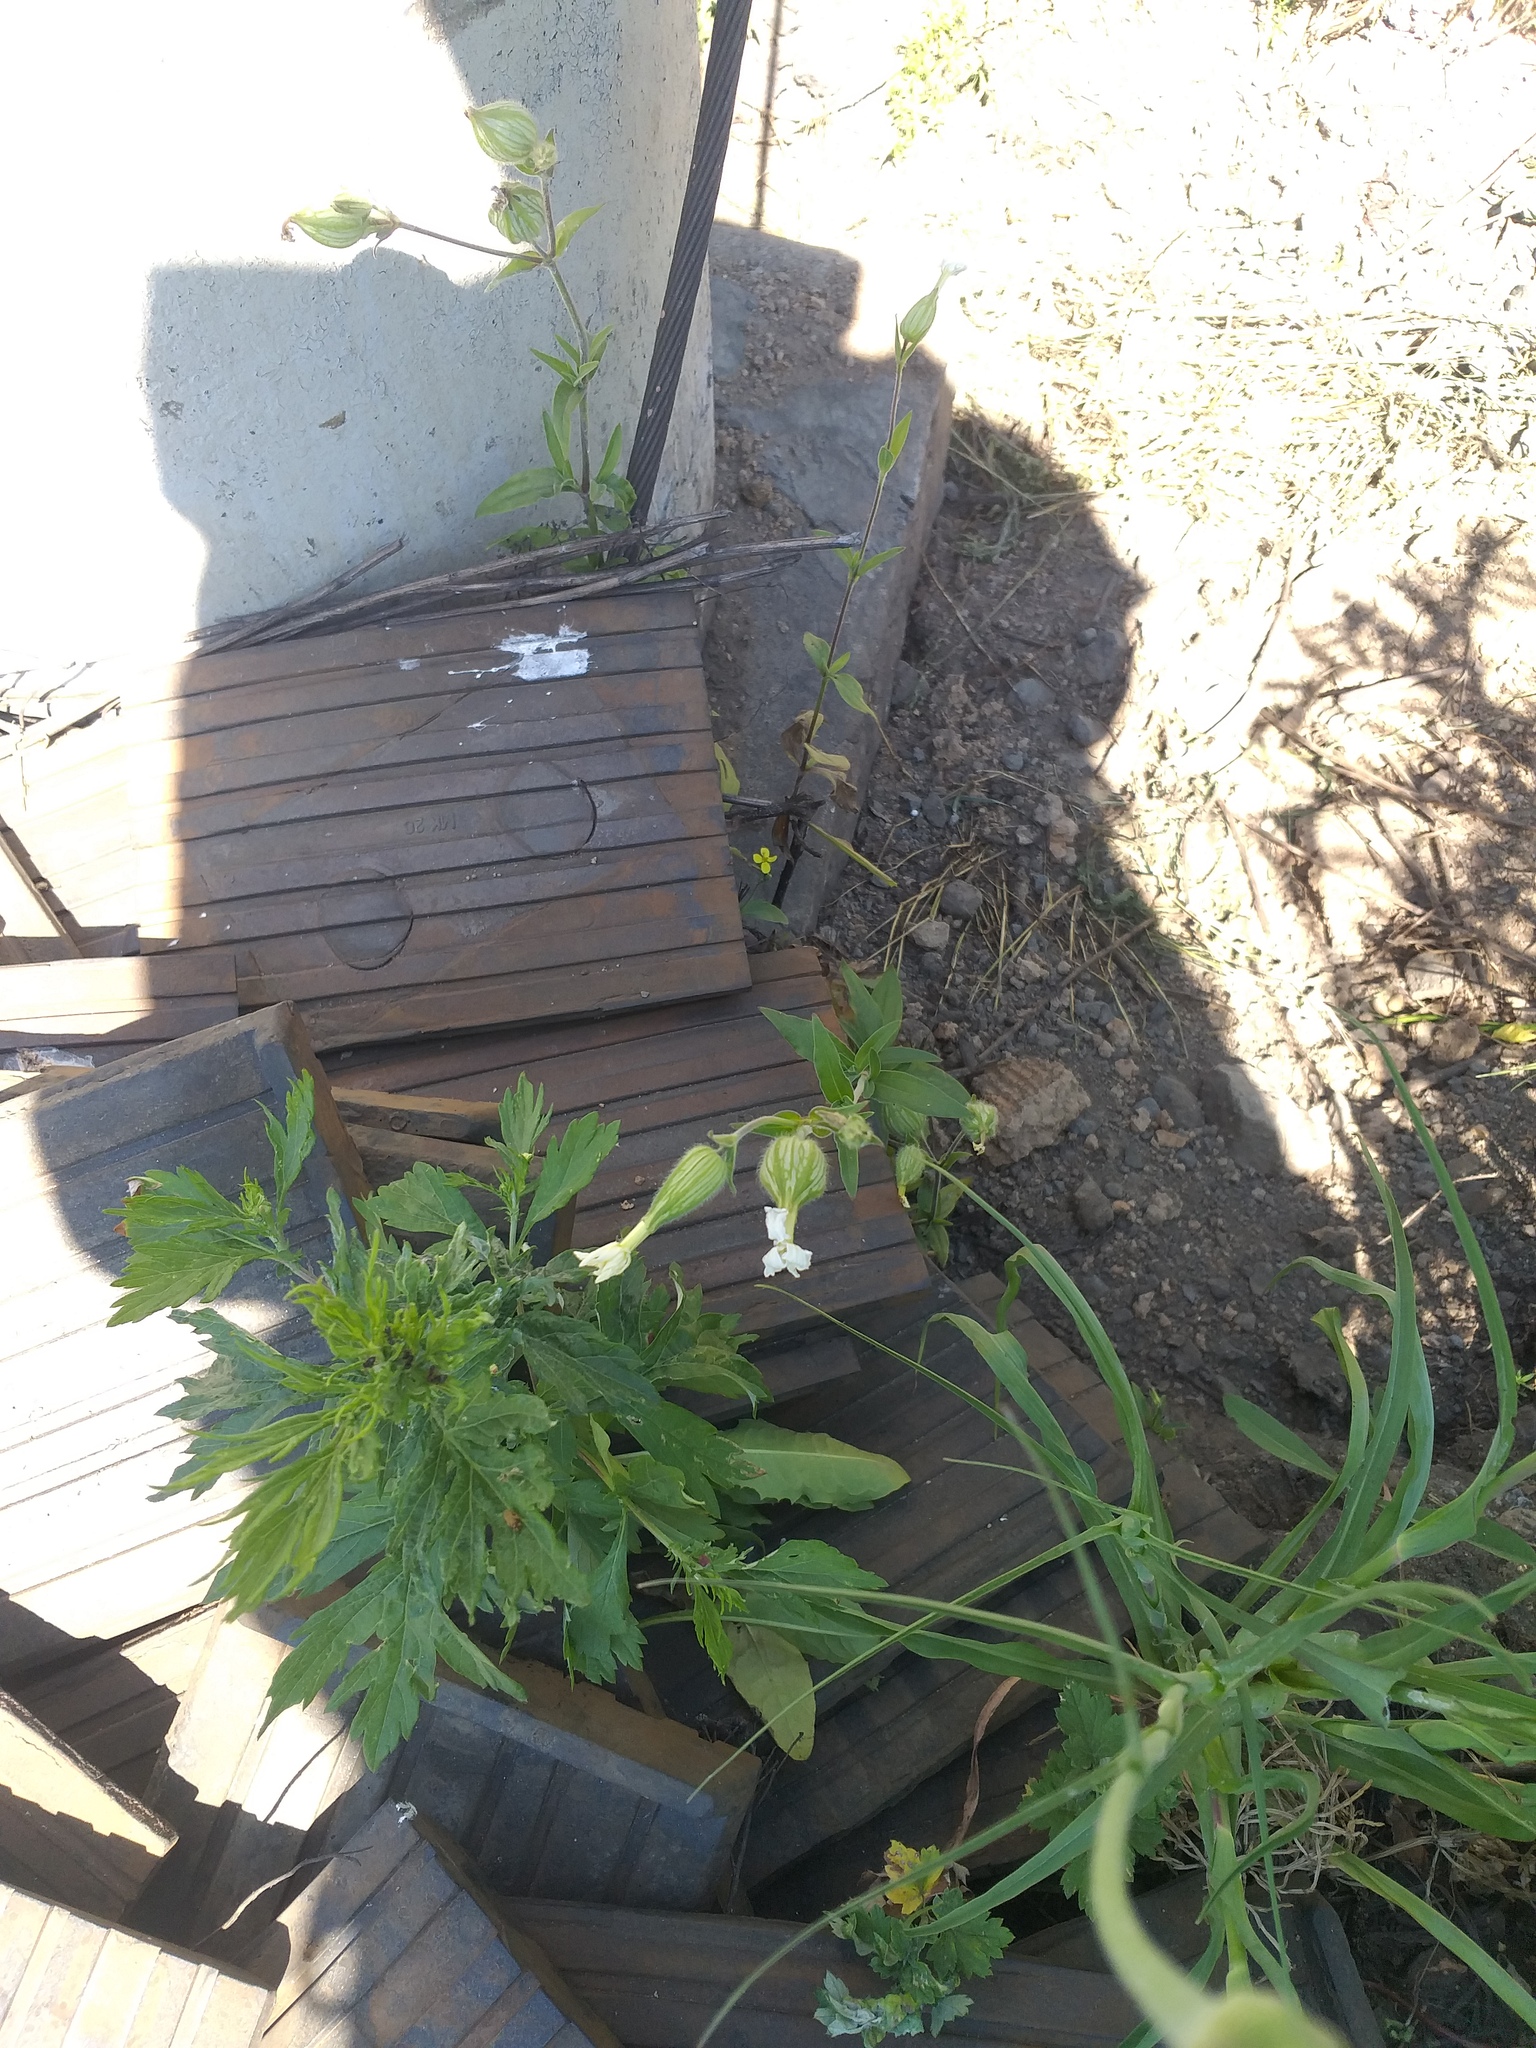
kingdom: Plantae
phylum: Tracheophyta
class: Magnoliopsida
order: Caryophyllales
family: Caryophyllaceae
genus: Silene
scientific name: Silene latifolia
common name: White campion
